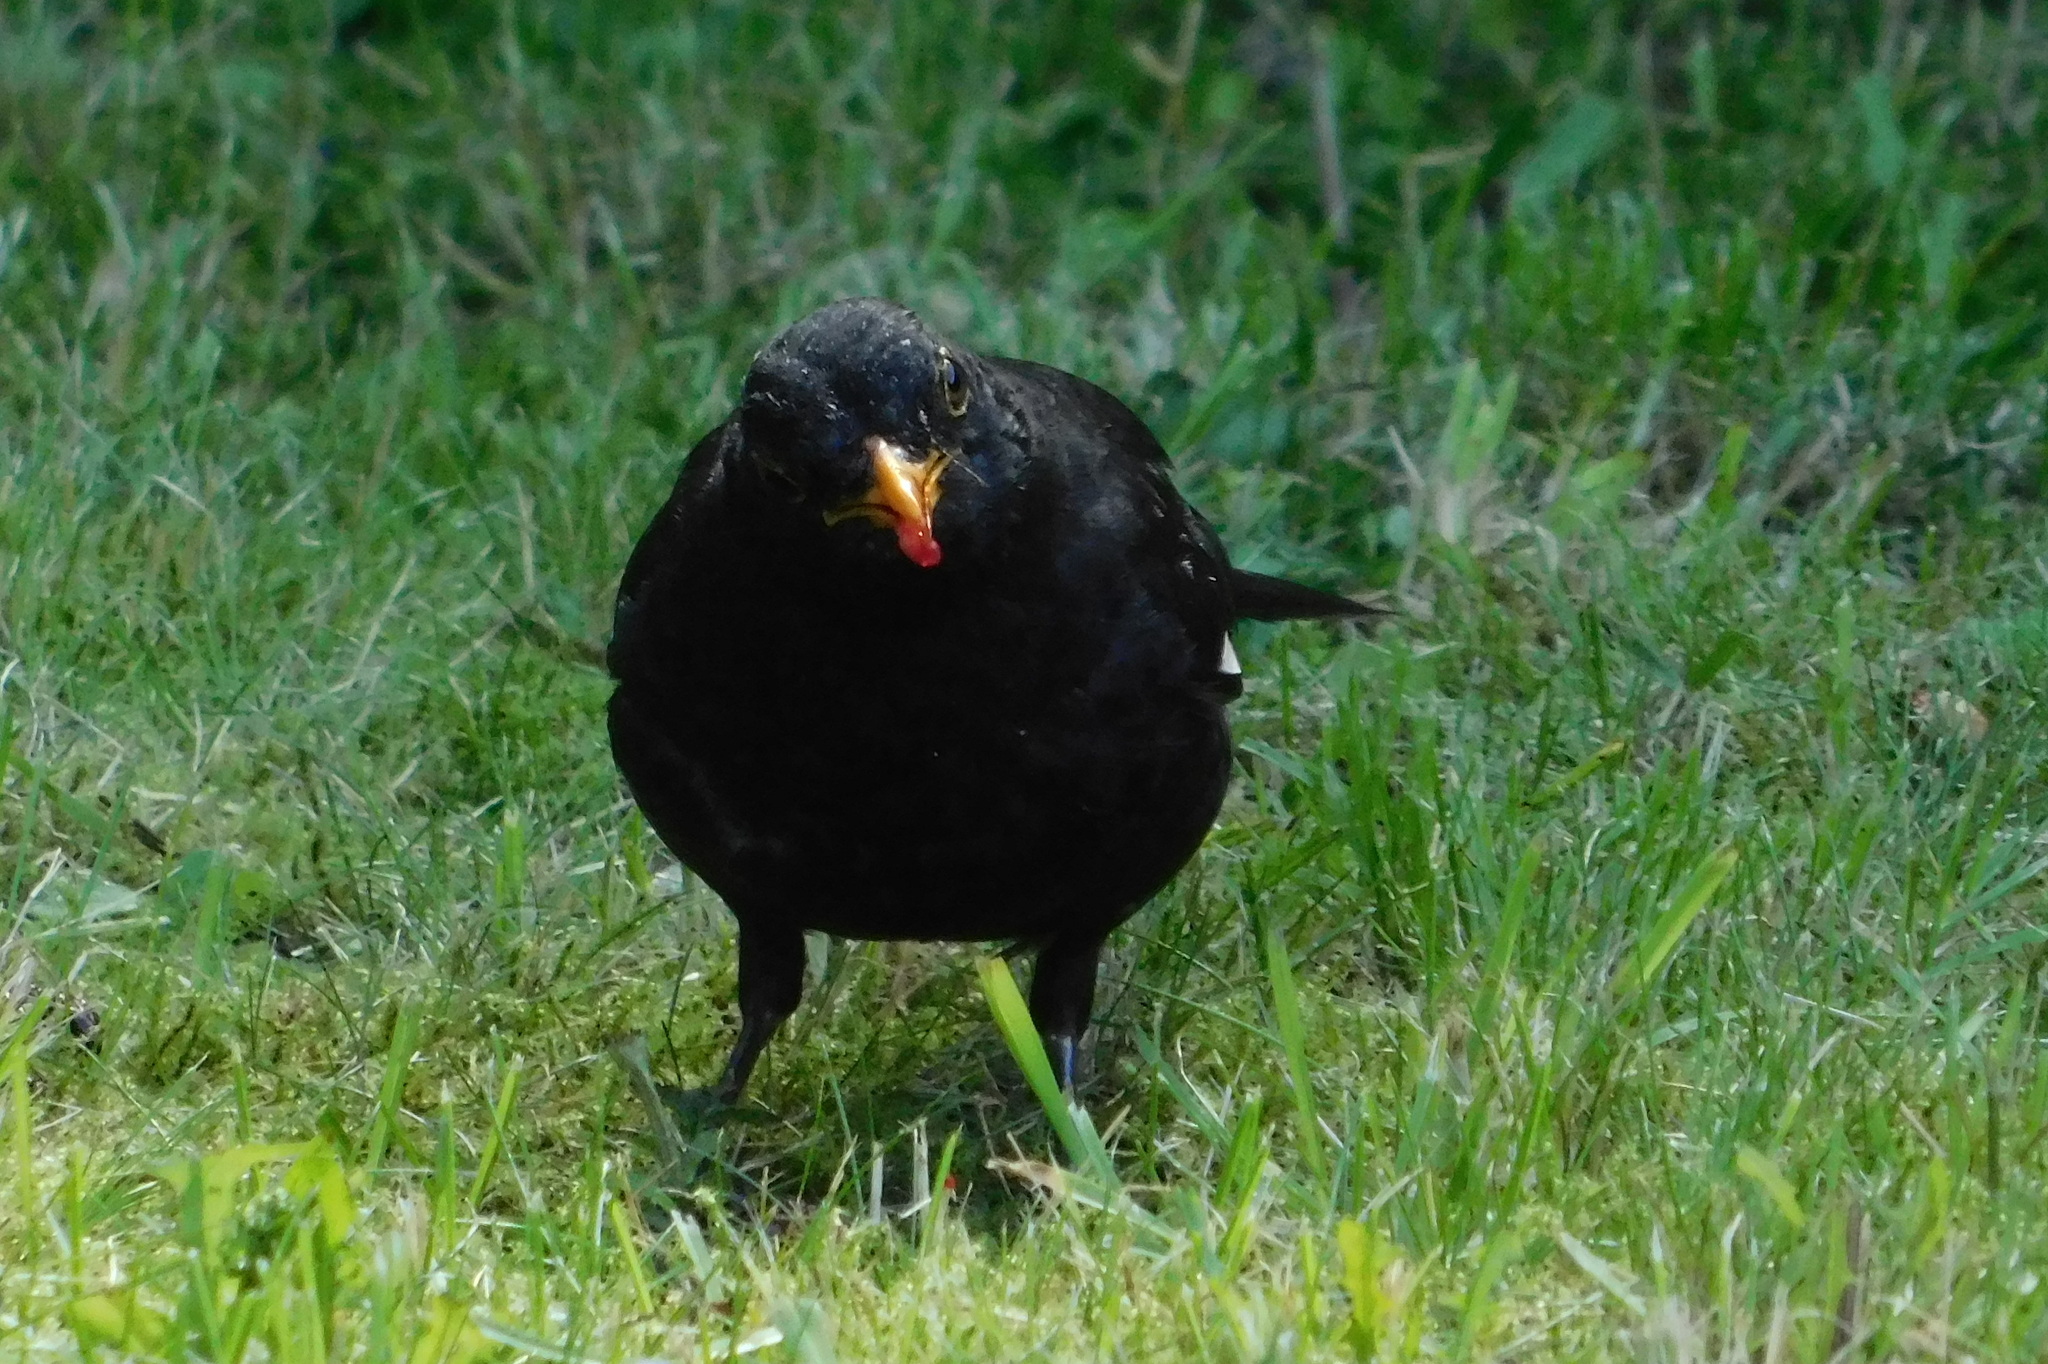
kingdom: Animalia
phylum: Chordata
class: Aves
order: Passeriformes
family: Turdidae
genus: Turdus
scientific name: Turdus merula
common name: Common blackbird
